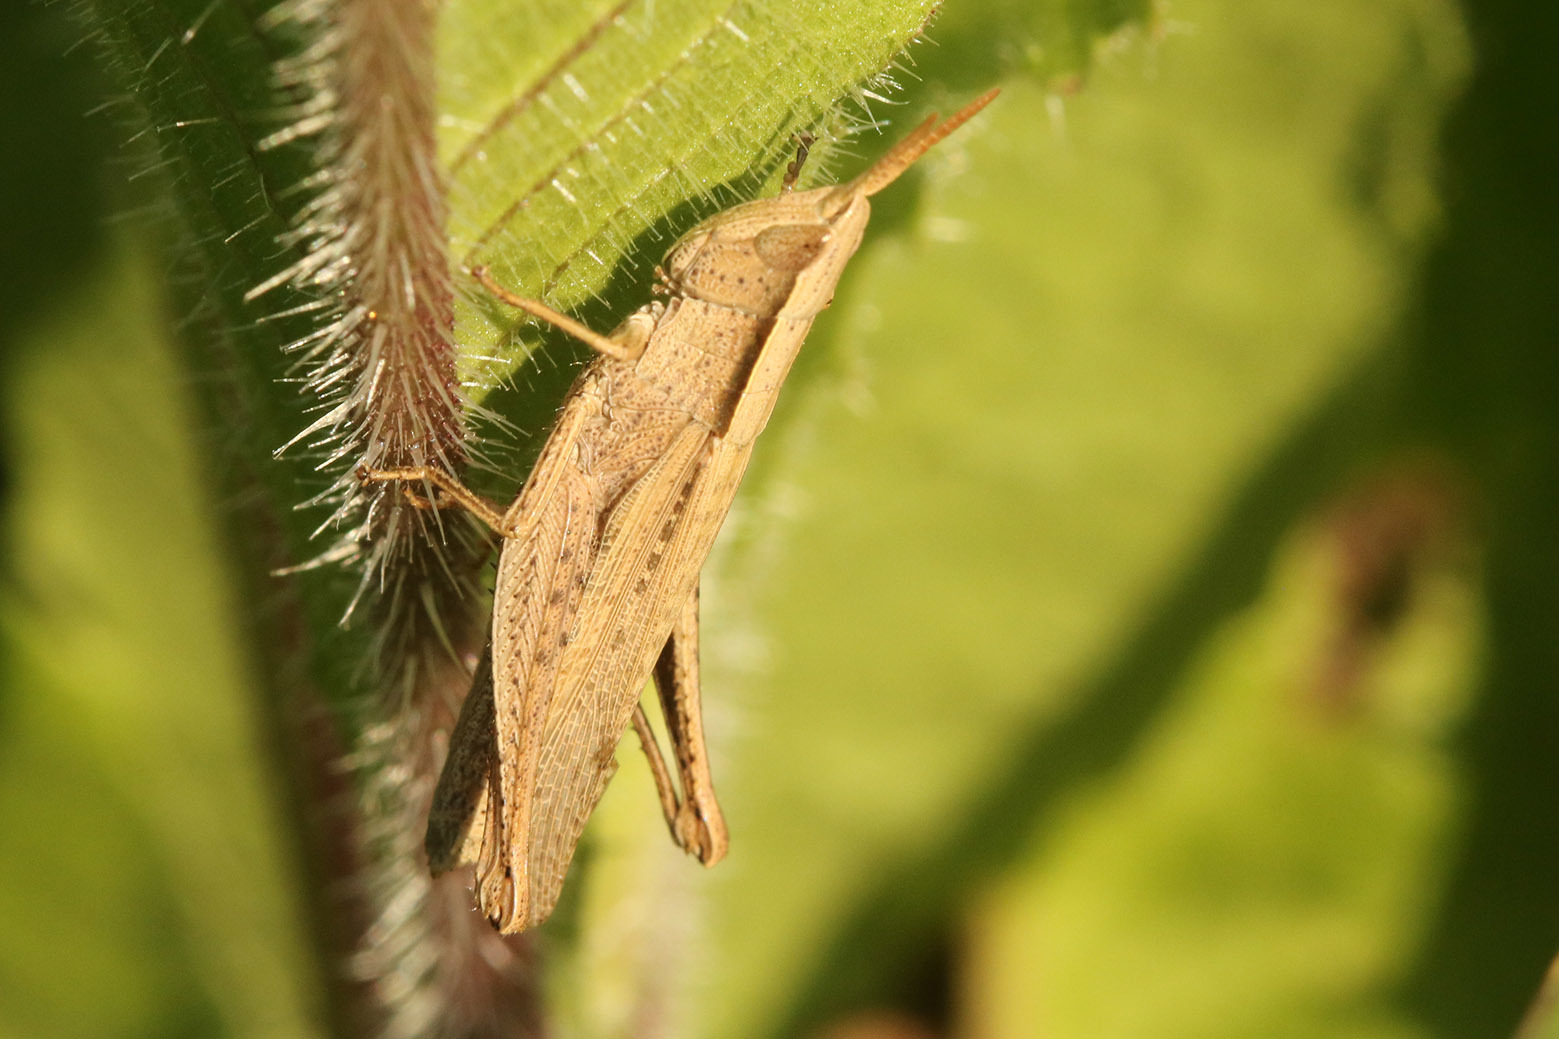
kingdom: Animalia
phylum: Arthropoda
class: Insecta
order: Orthoptera
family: Acrididae
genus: Laplatacris
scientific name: Laplatacris dispar
